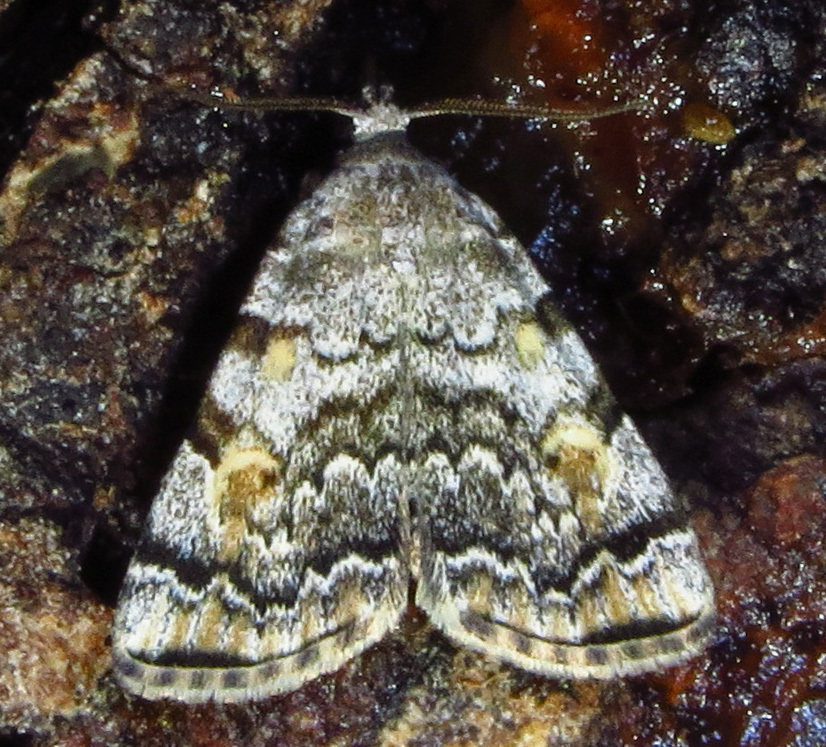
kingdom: Animalia
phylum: Arthropoda
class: Insecta
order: Lepidoptera
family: Erebidae
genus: Idia
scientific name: Idia americalis
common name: American idia moth
